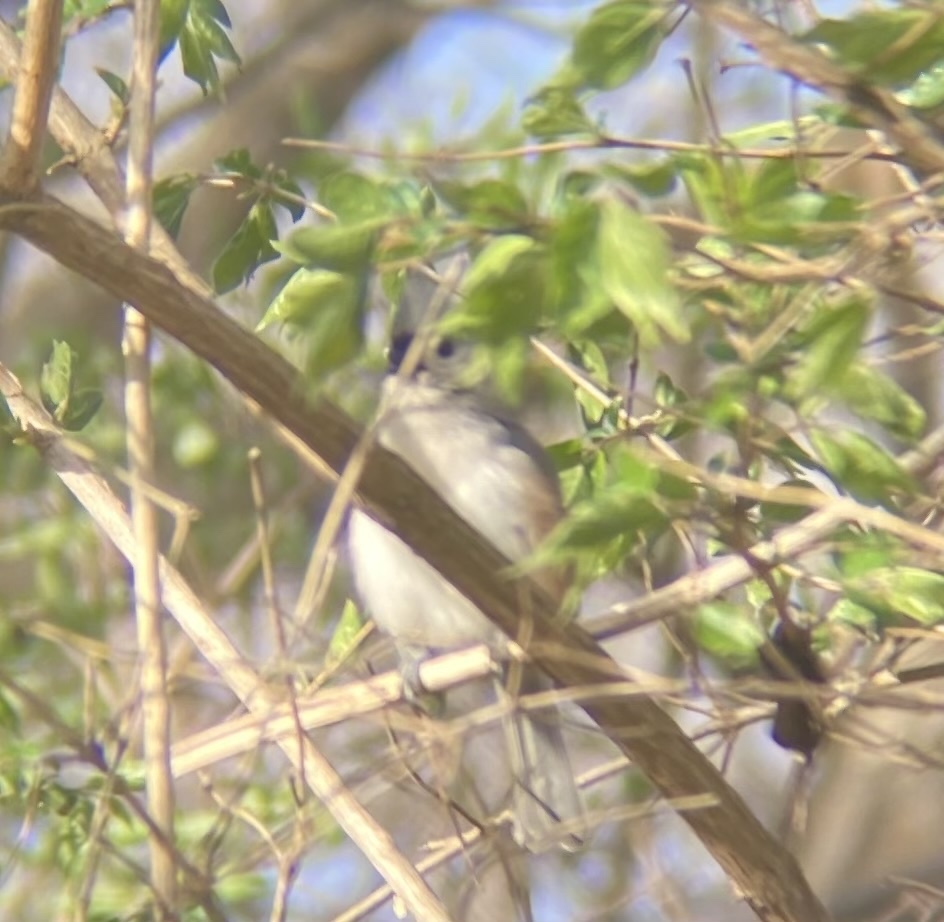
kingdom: Animalia
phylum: Chordata
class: Aves
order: Passeriformes
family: Paridae
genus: Baeolophus
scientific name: Baeolophus bicolor
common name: Tufted titmouse
